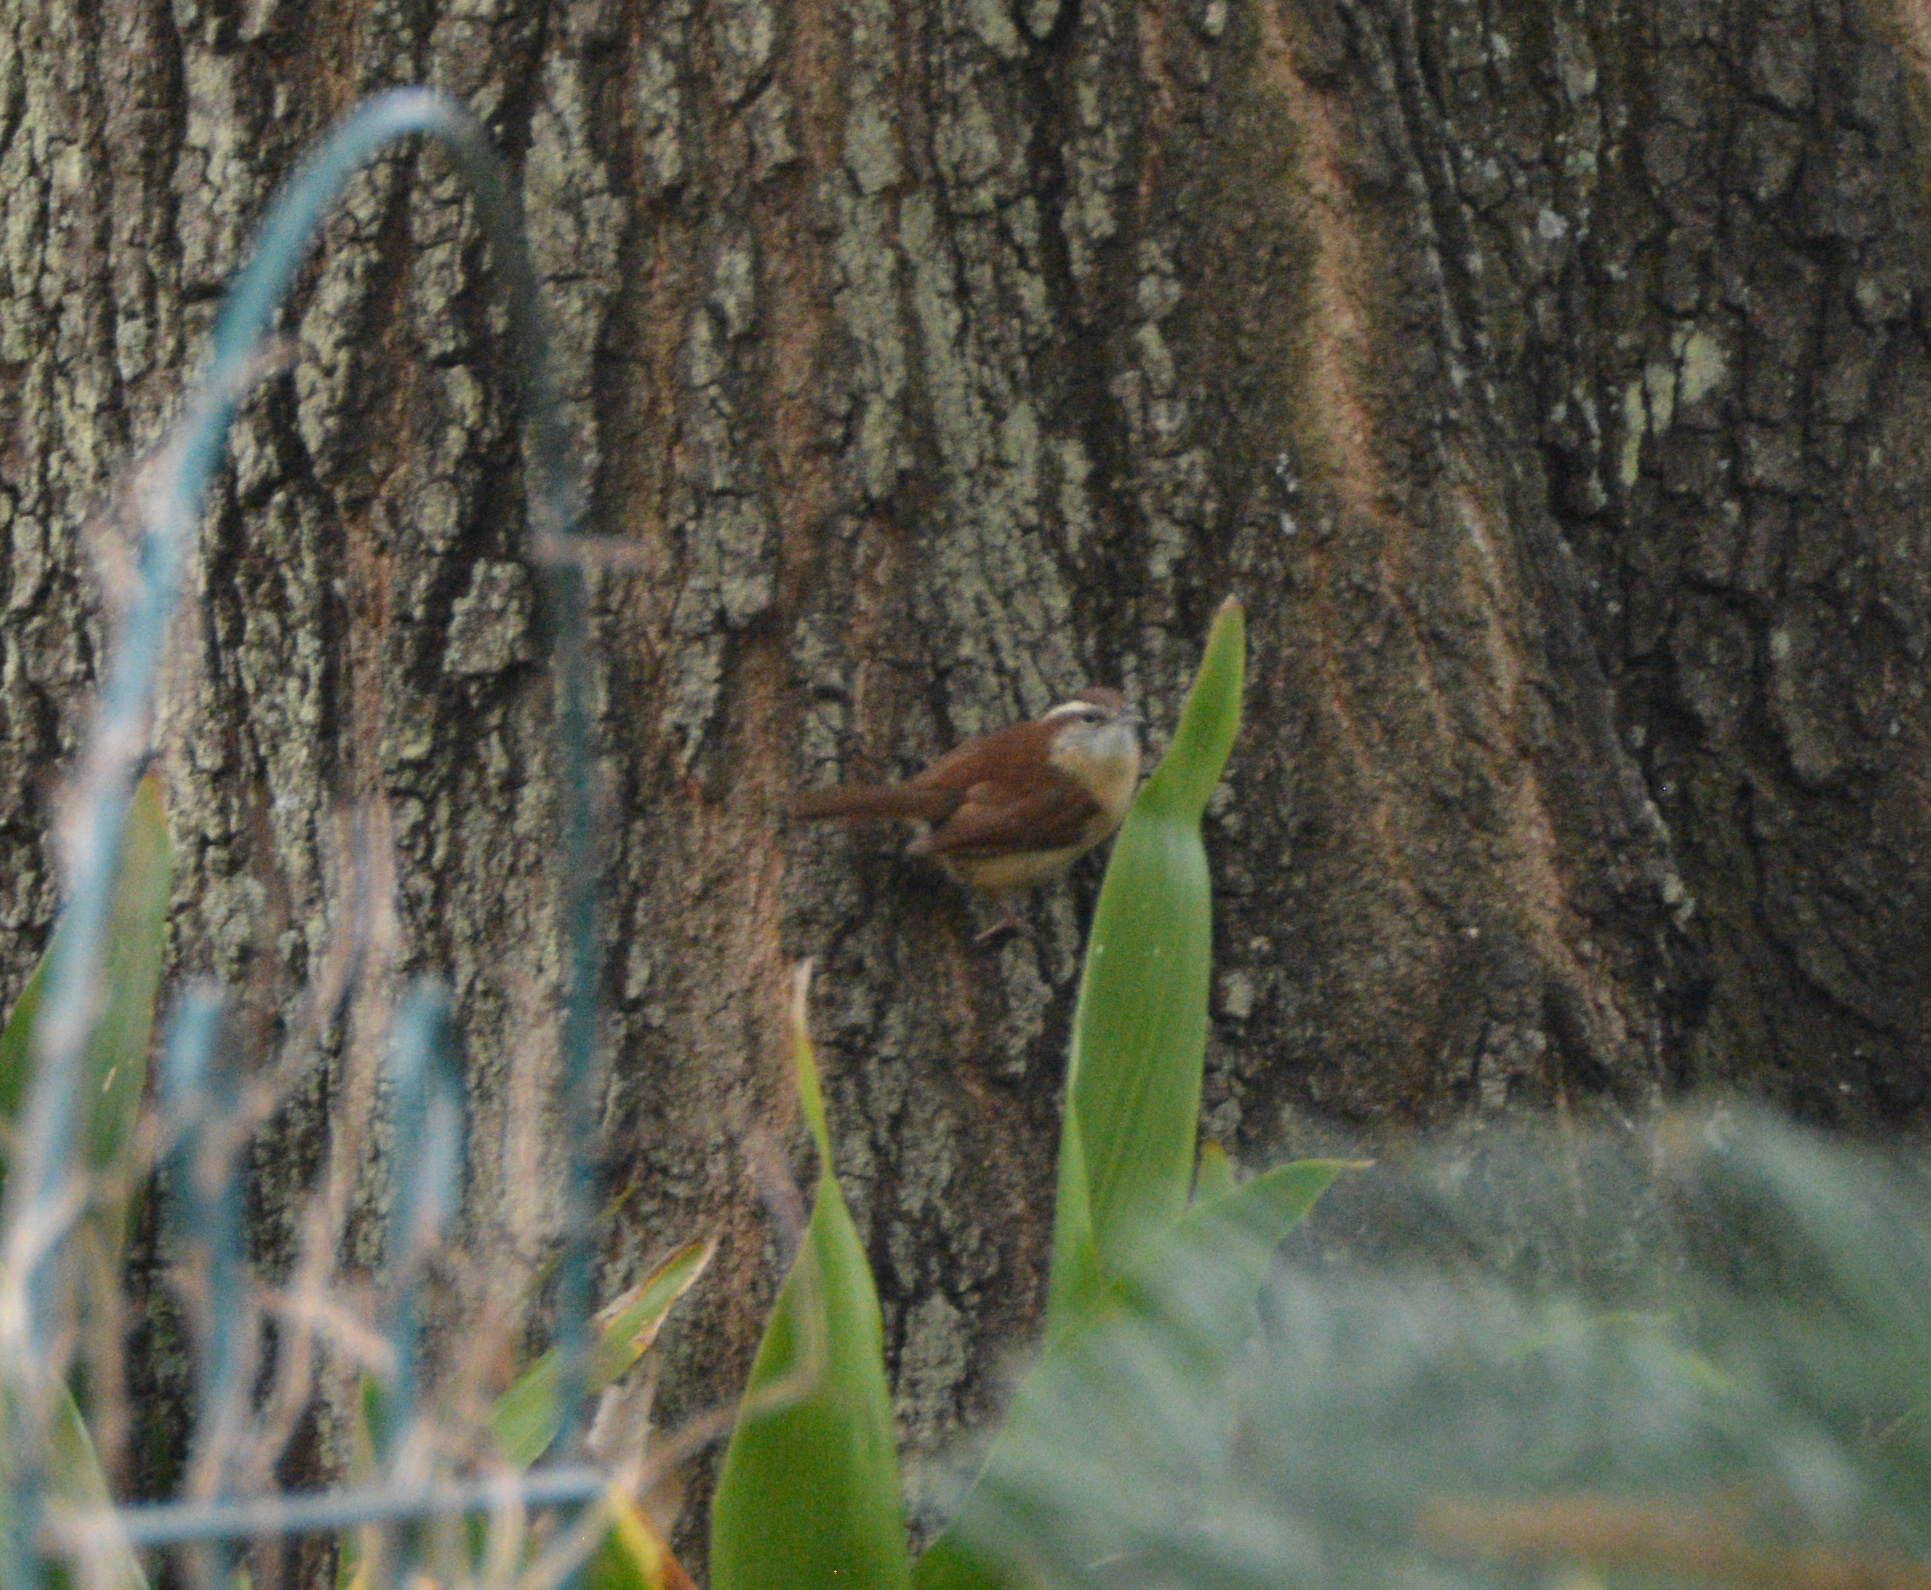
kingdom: Animalia
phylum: Chordata
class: Aves
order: Passeriformes
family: Troglodytidae
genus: Thryothorus
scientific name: Thryothorus ludovicianus
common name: Carolina wren
